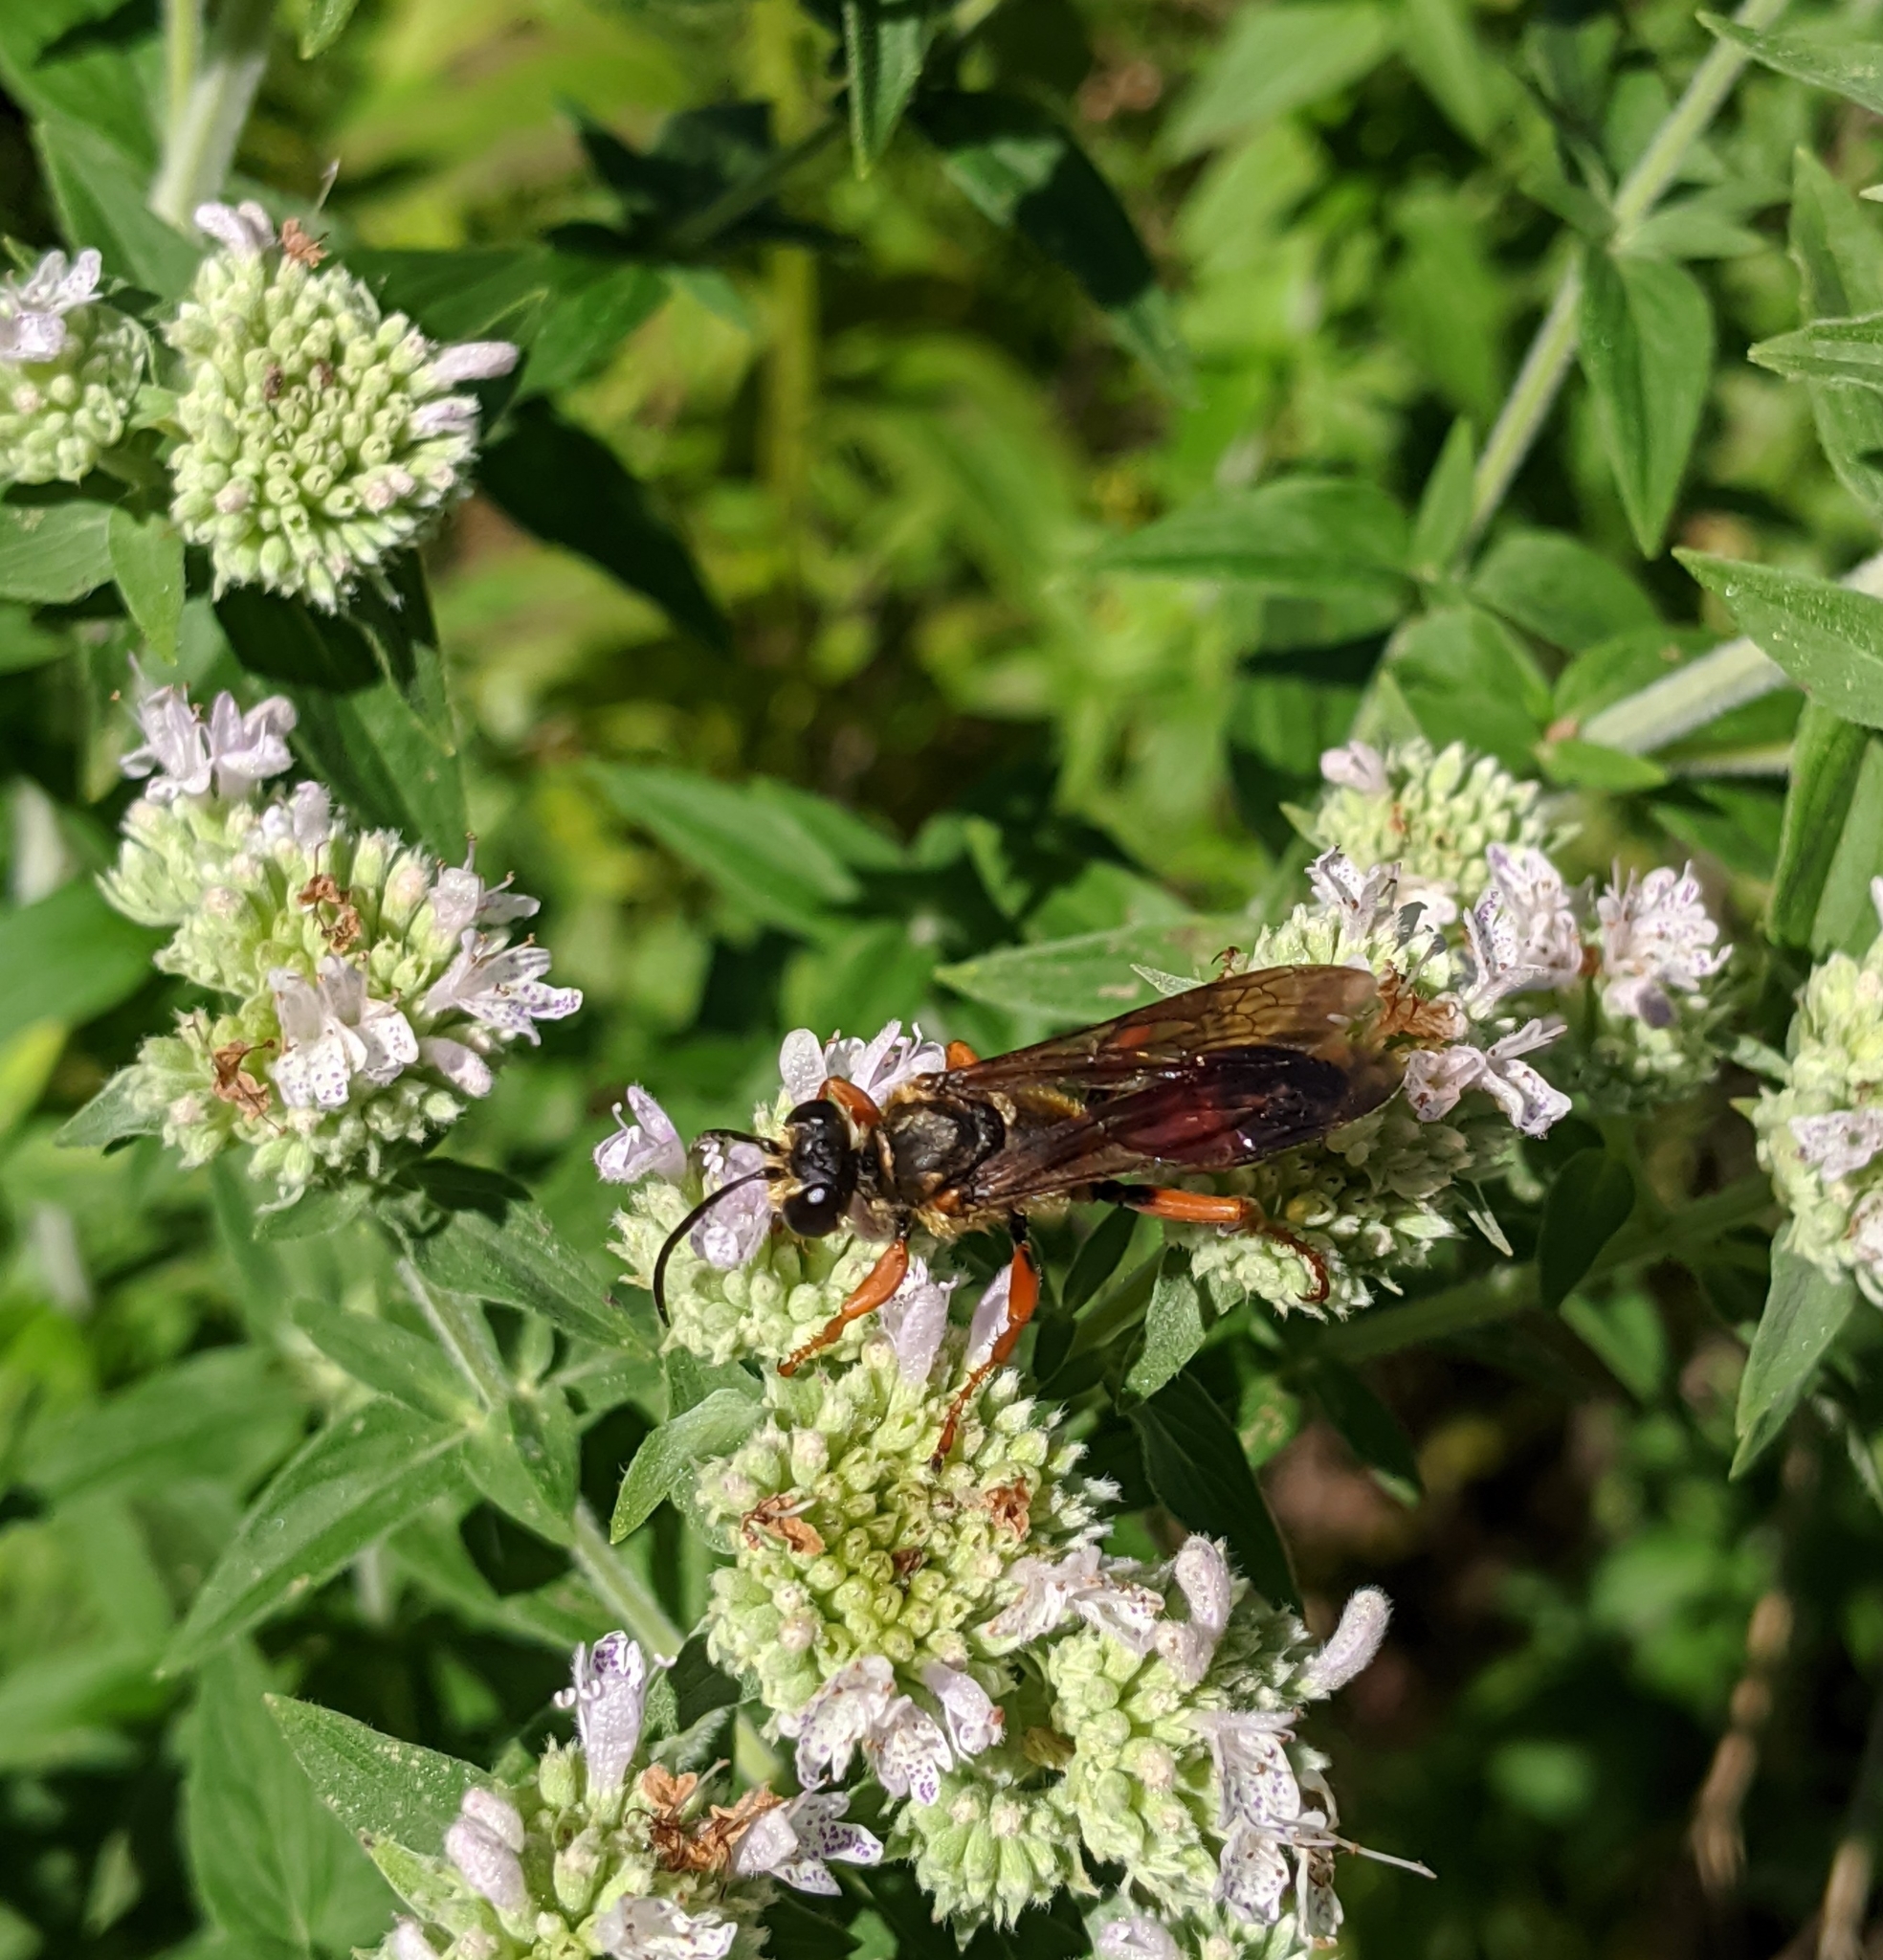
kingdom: Animalia
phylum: Arthropoda
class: Insecta
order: Hymenoptera
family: Sphecidae
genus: Sphex
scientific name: Sphex ichneumoneus
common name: Great golden digger wasp
